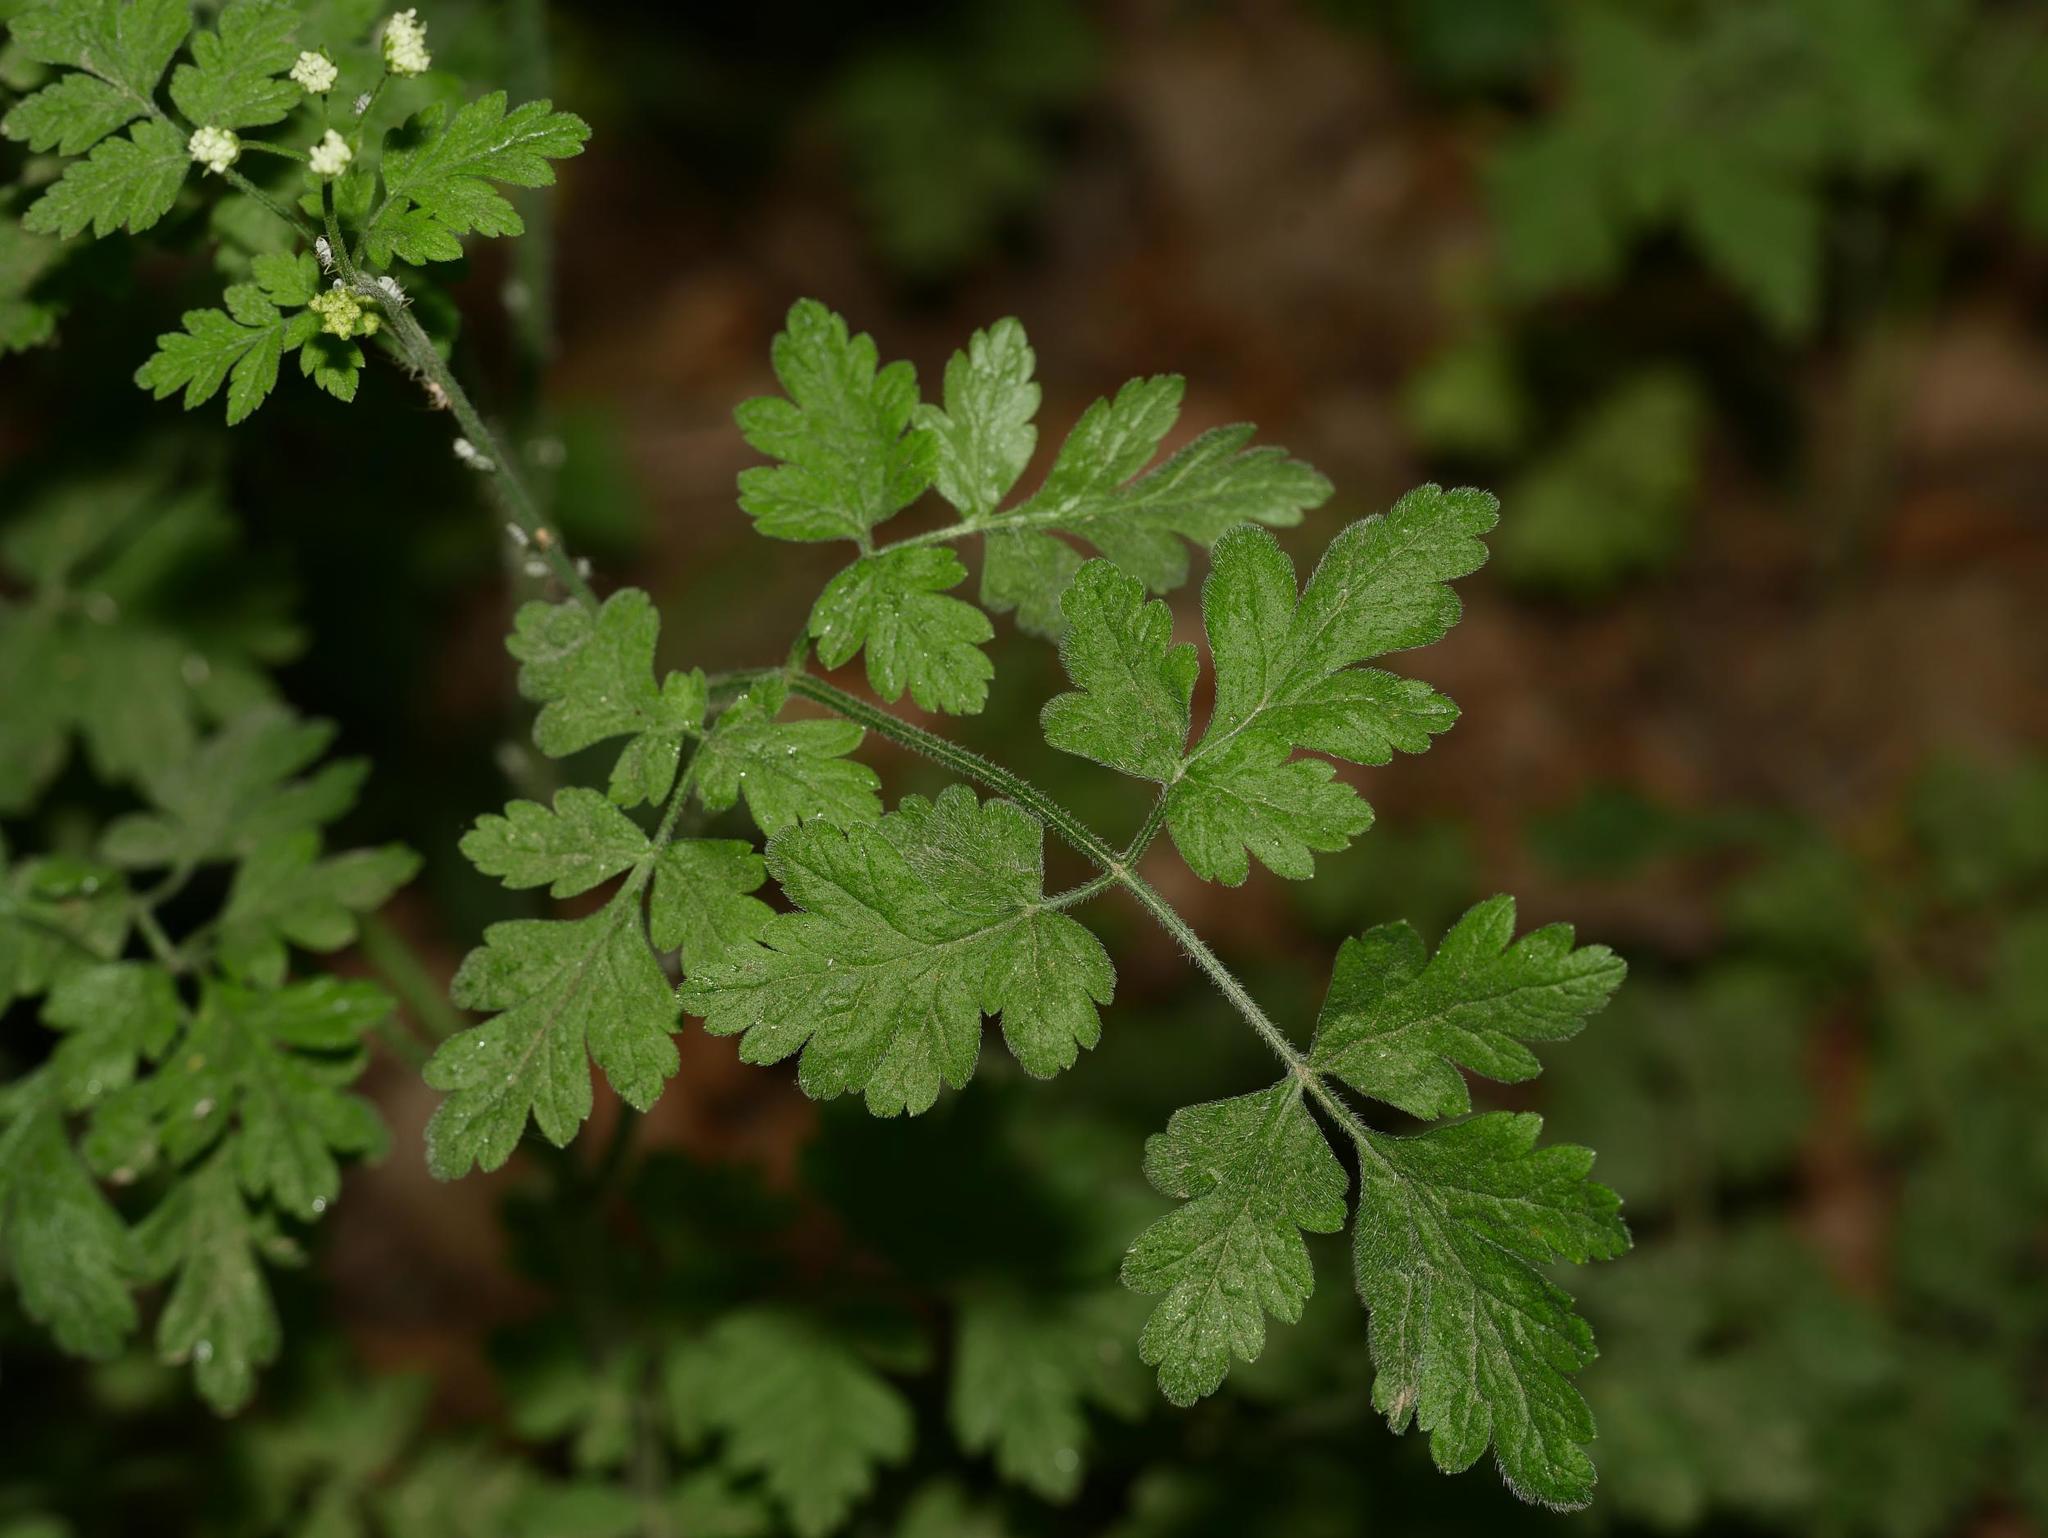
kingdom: Plantae
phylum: Tracheophyta
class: Magnoliopsida
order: Apiales
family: Apiaceae
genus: Chaerophyllum
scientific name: Chaerophyllum temulum
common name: Rough chervil
